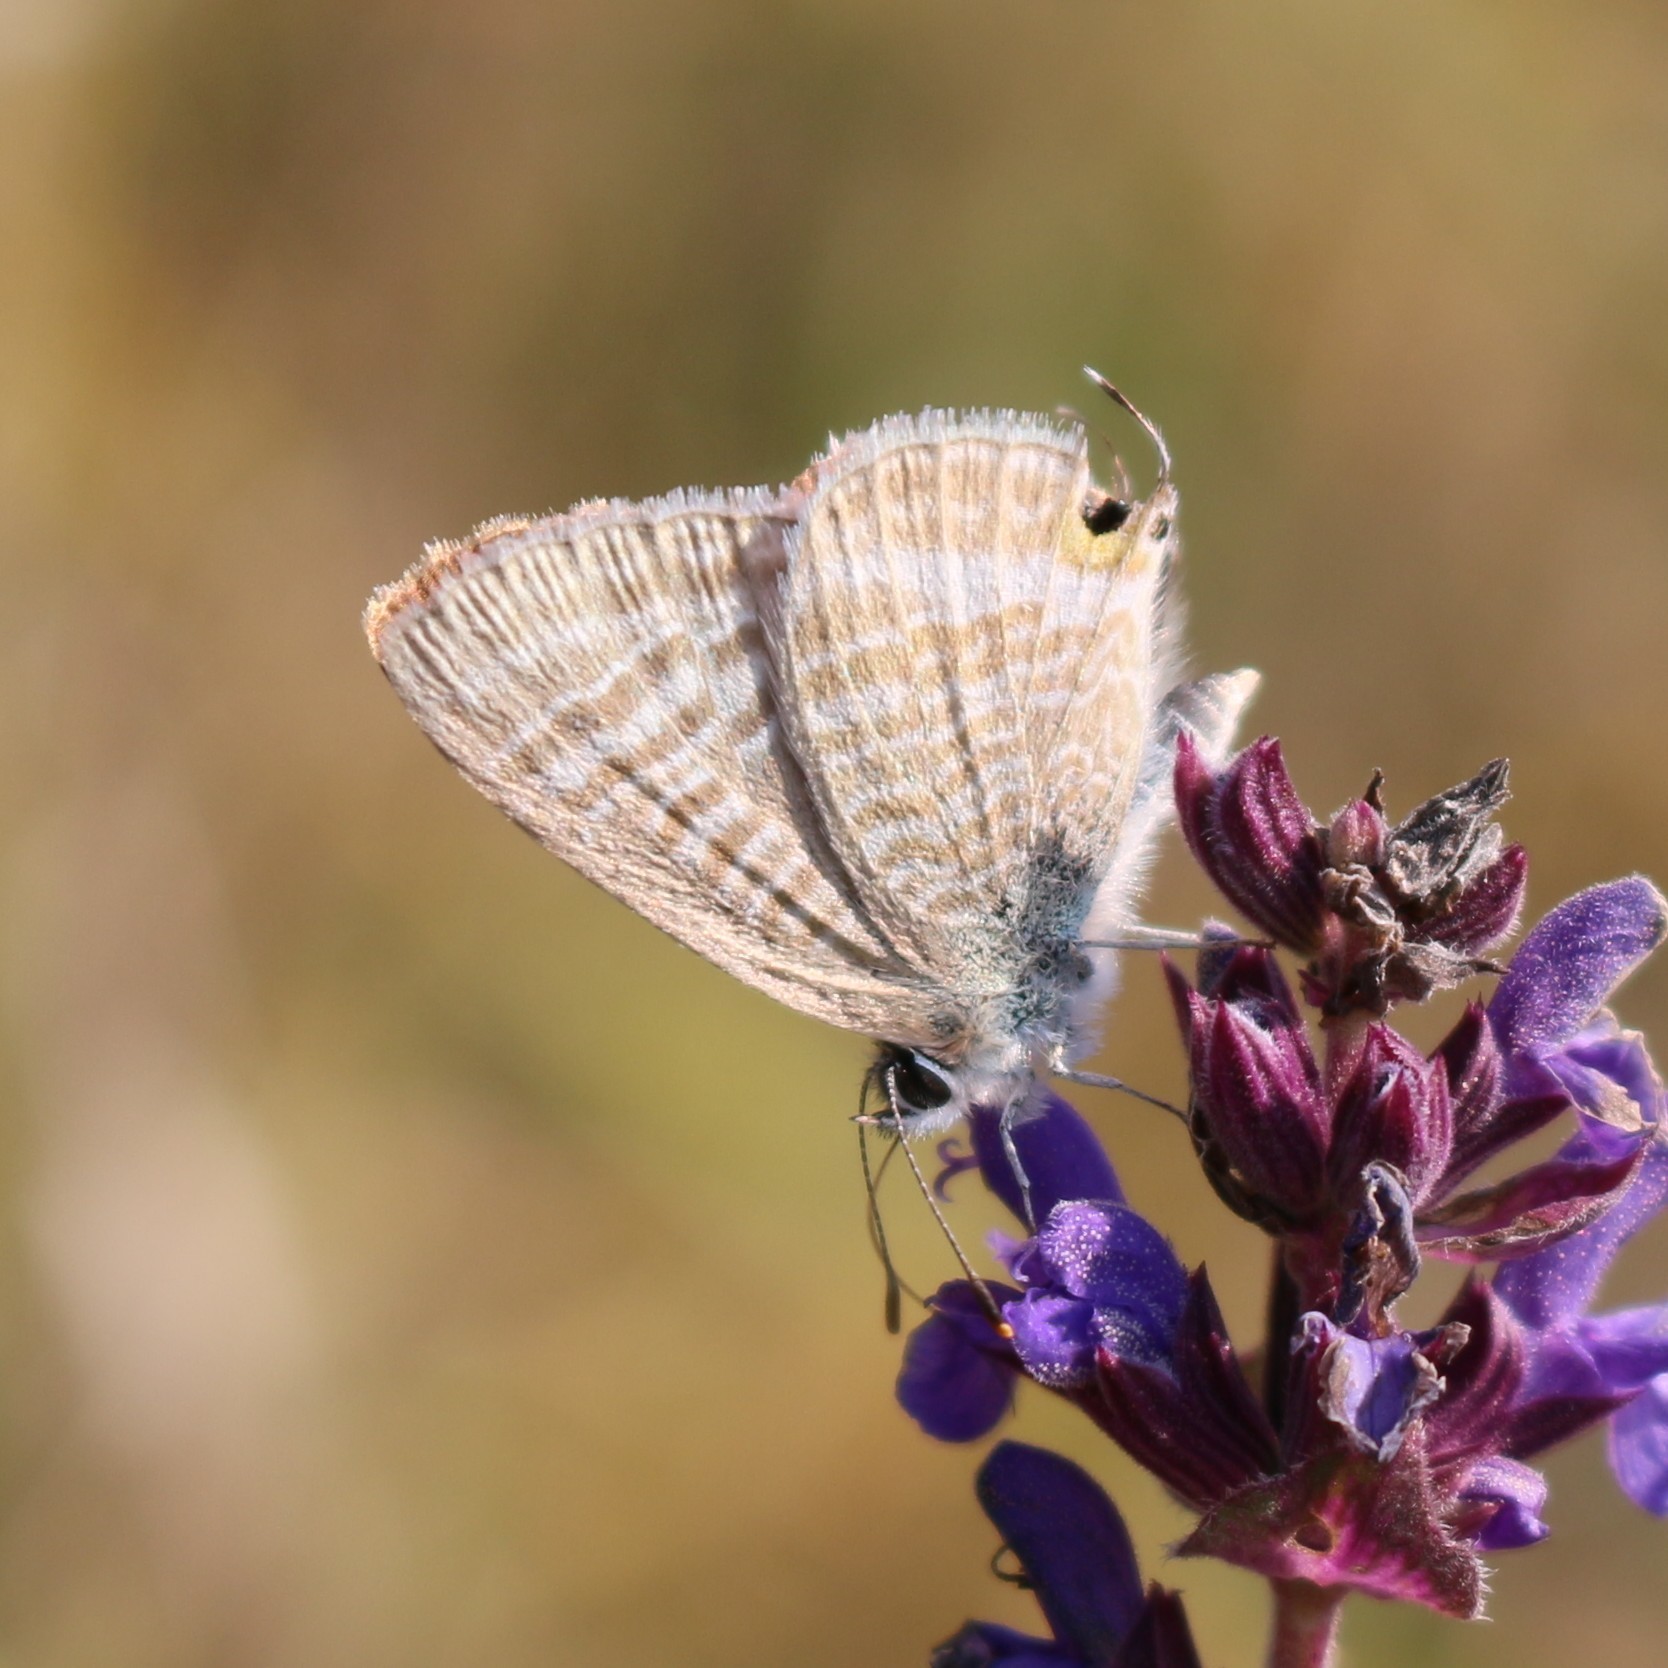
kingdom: Animalia
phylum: Arthropoda
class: Insecta
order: Lepidoptera
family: Lycaenidae
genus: Lampides
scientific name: Lampides boeticus
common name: Long-tailed blue
